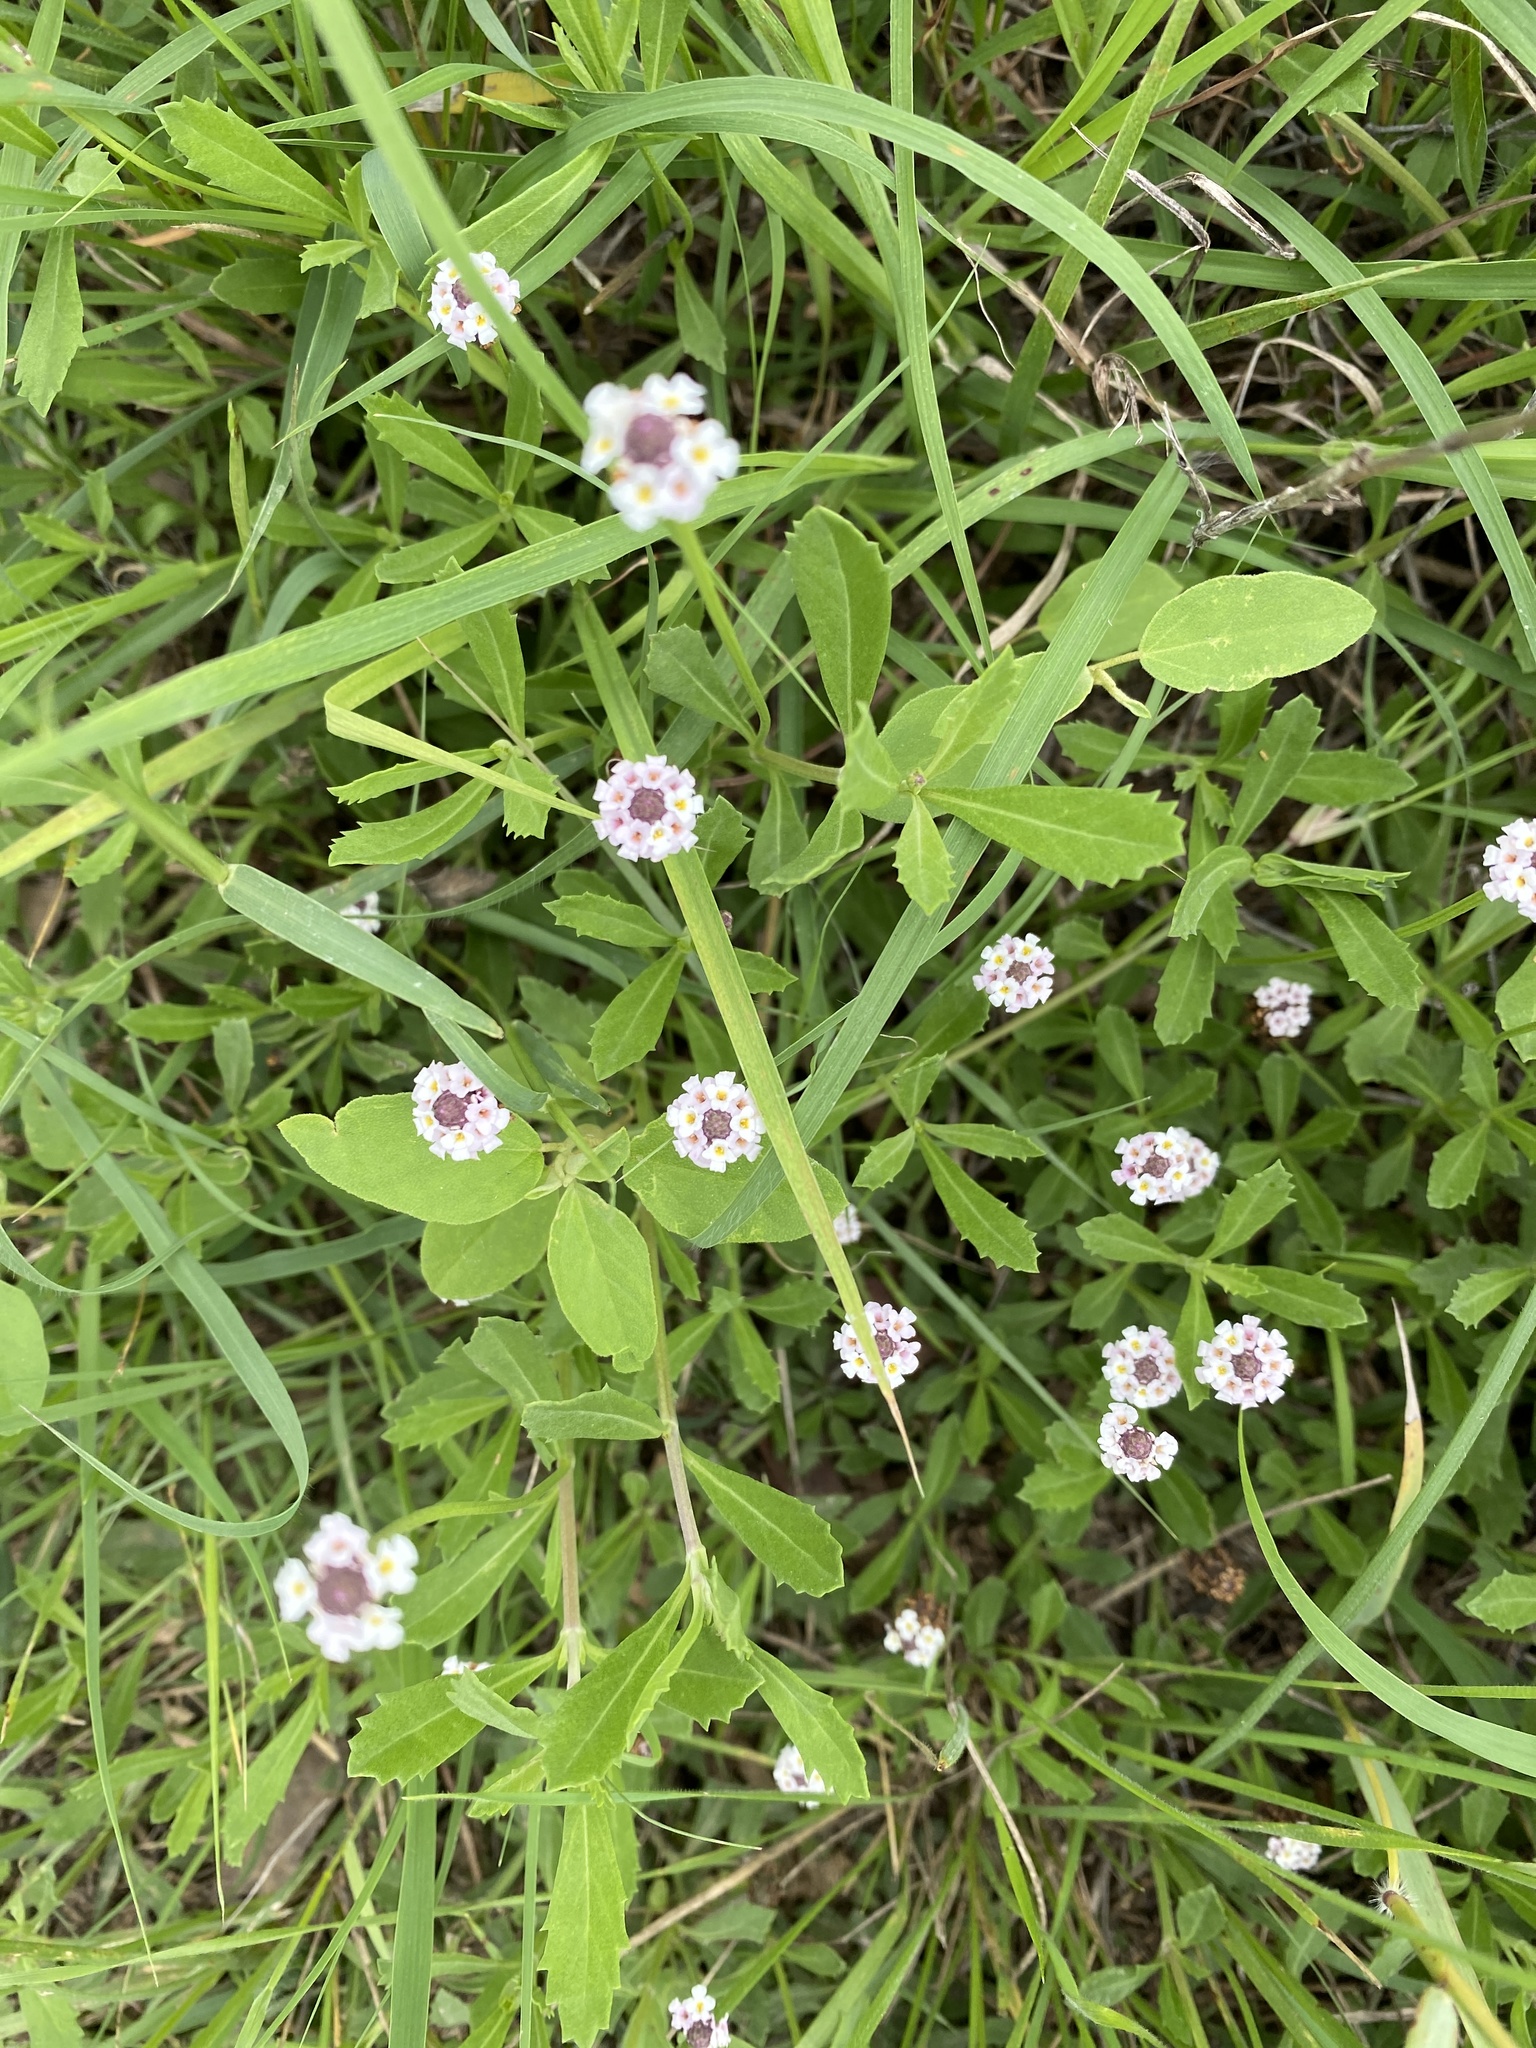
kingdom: Plantae
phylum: Tracheophyta
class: Magnoliopsida
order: Lamiales
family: Verbenaceae
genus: Phyla
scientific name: Phyla nodiflora
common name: Frogfruit
